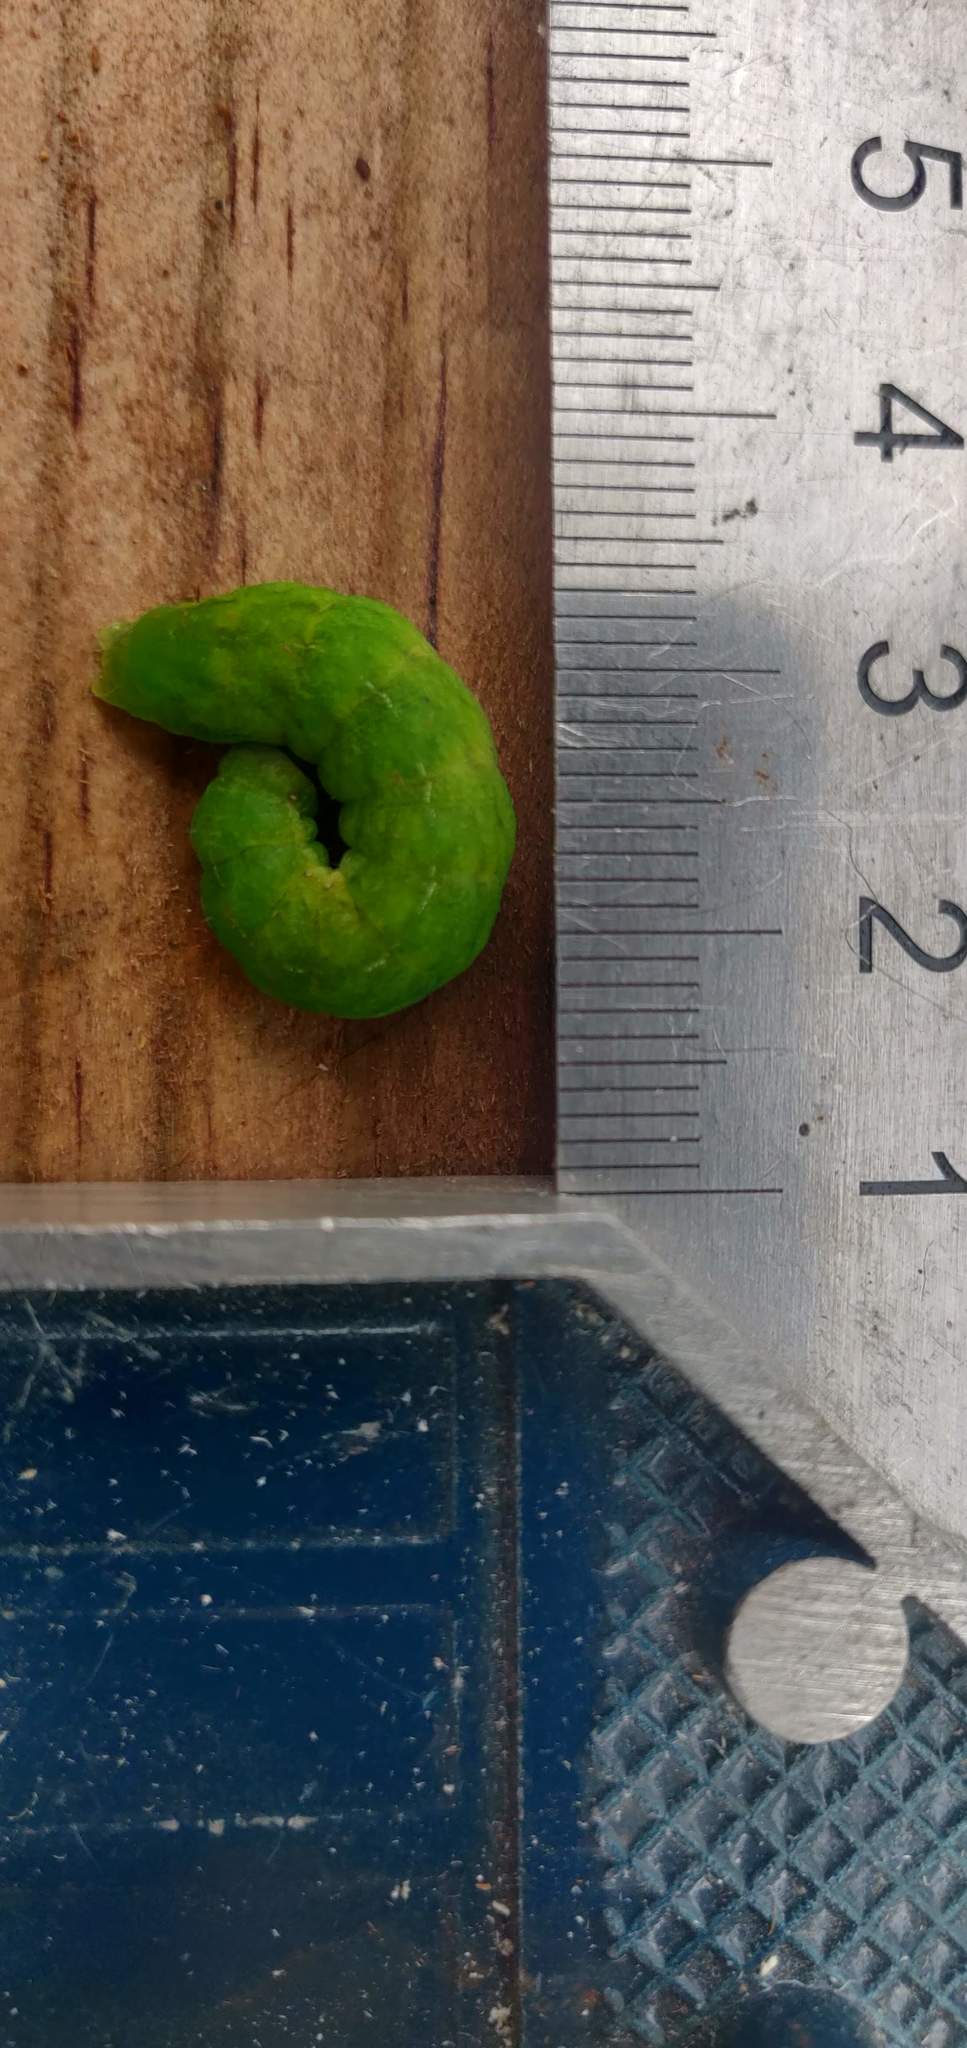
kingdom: Animalia
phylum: Arthropoda
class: Insecta
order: Lepidoptera
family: Noctuidae
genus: Phlogophora
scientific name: Phlogophora meticulosa
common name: Angle shades
